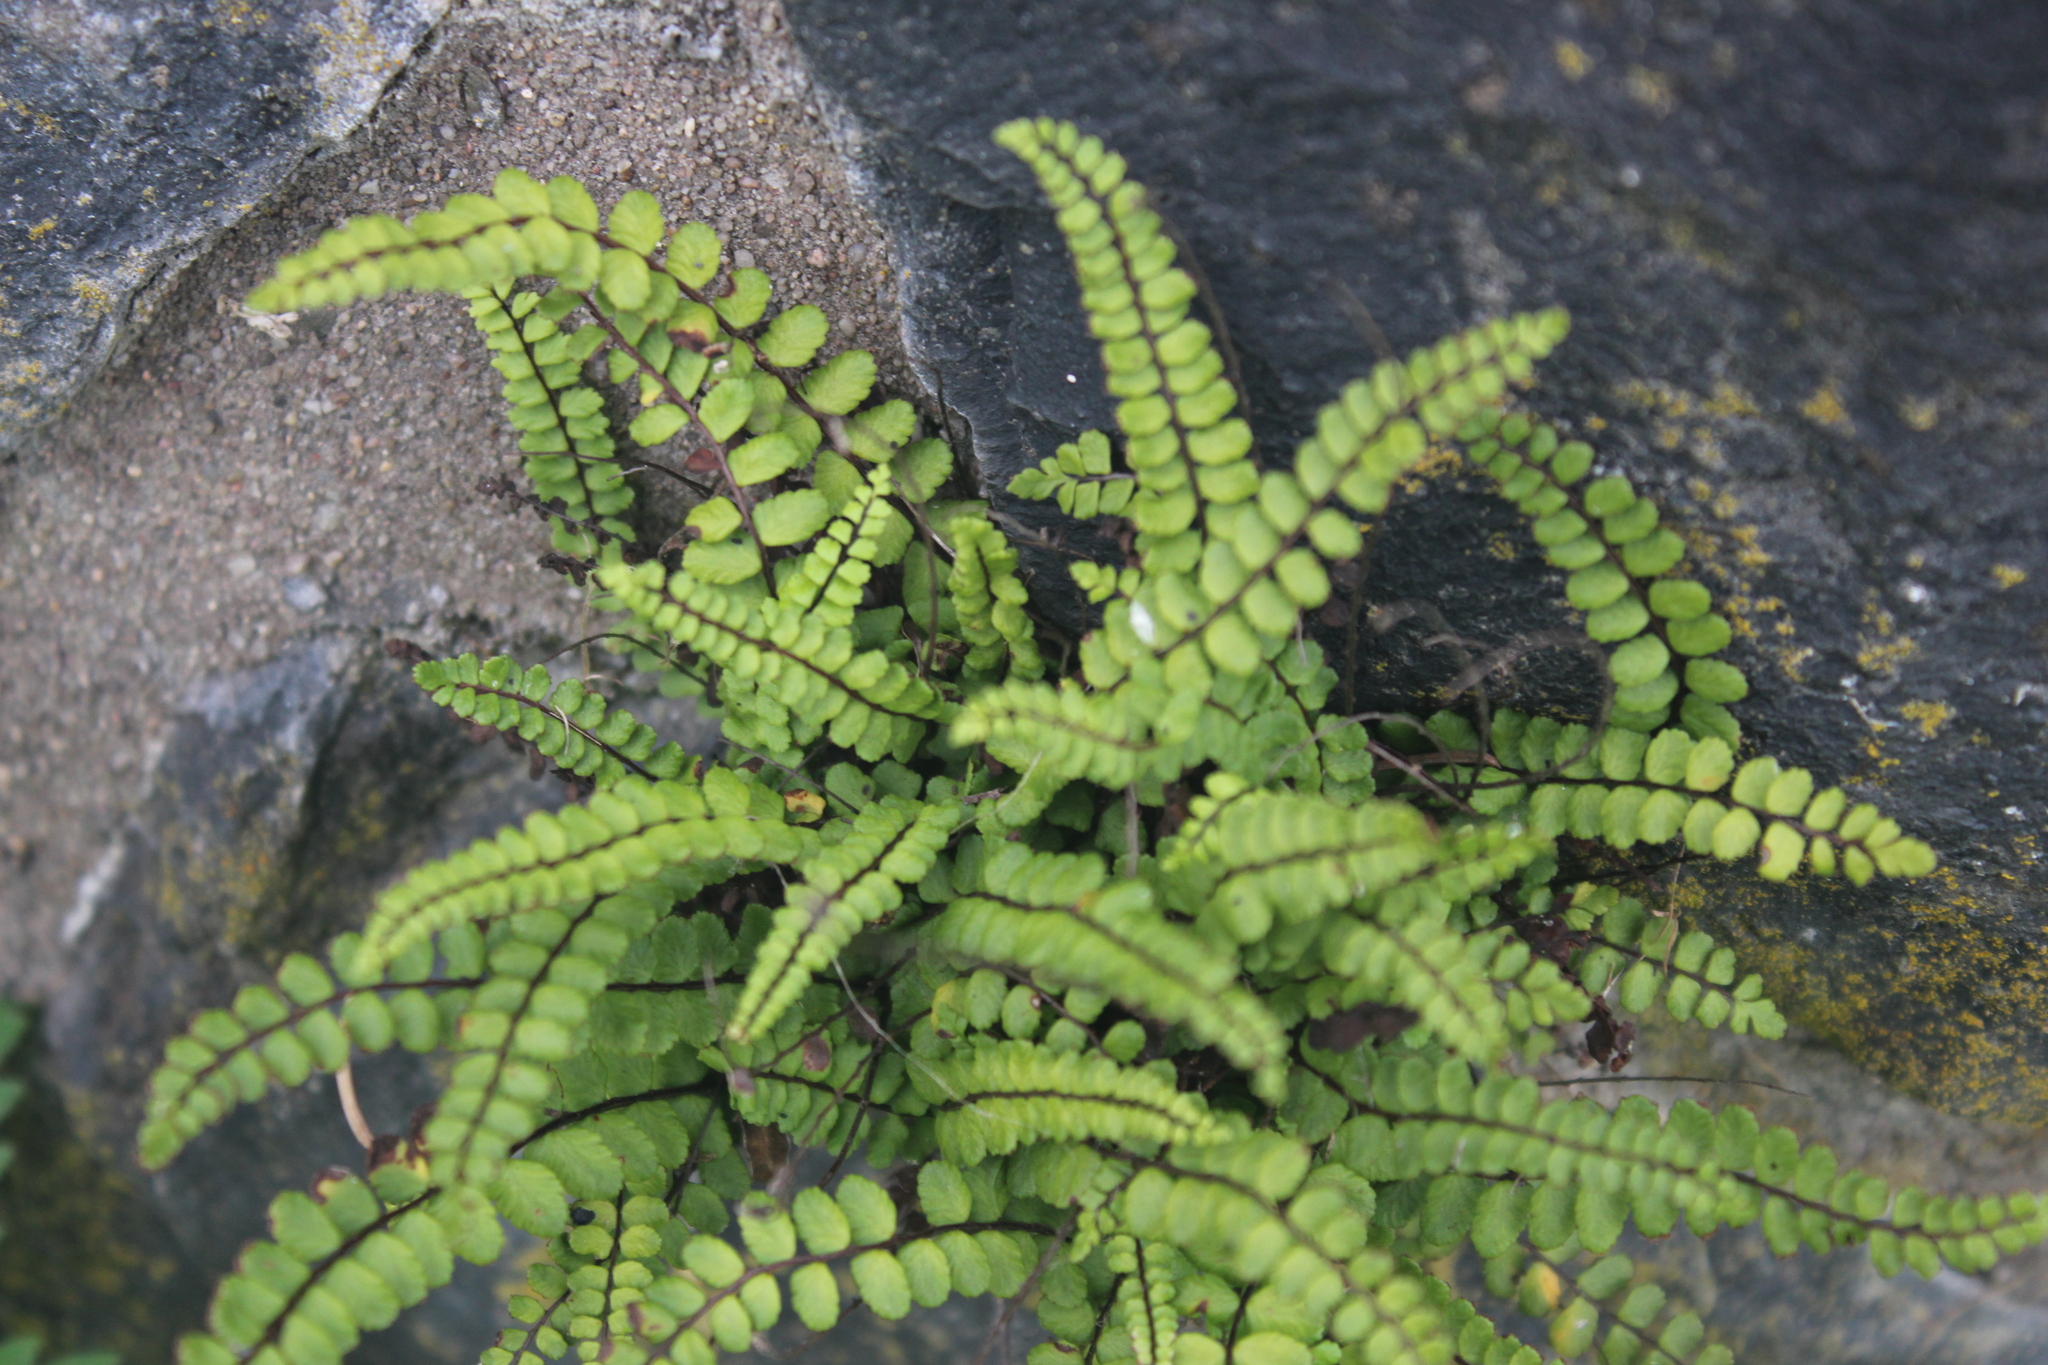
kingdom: Plantae
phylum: Tracheophyta
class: Polypodiopsida
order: Polypodiales
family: Aspleniaceae
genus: Asplenium
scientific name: Asplenium trichomanes
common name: Maidenhair spleenwort
